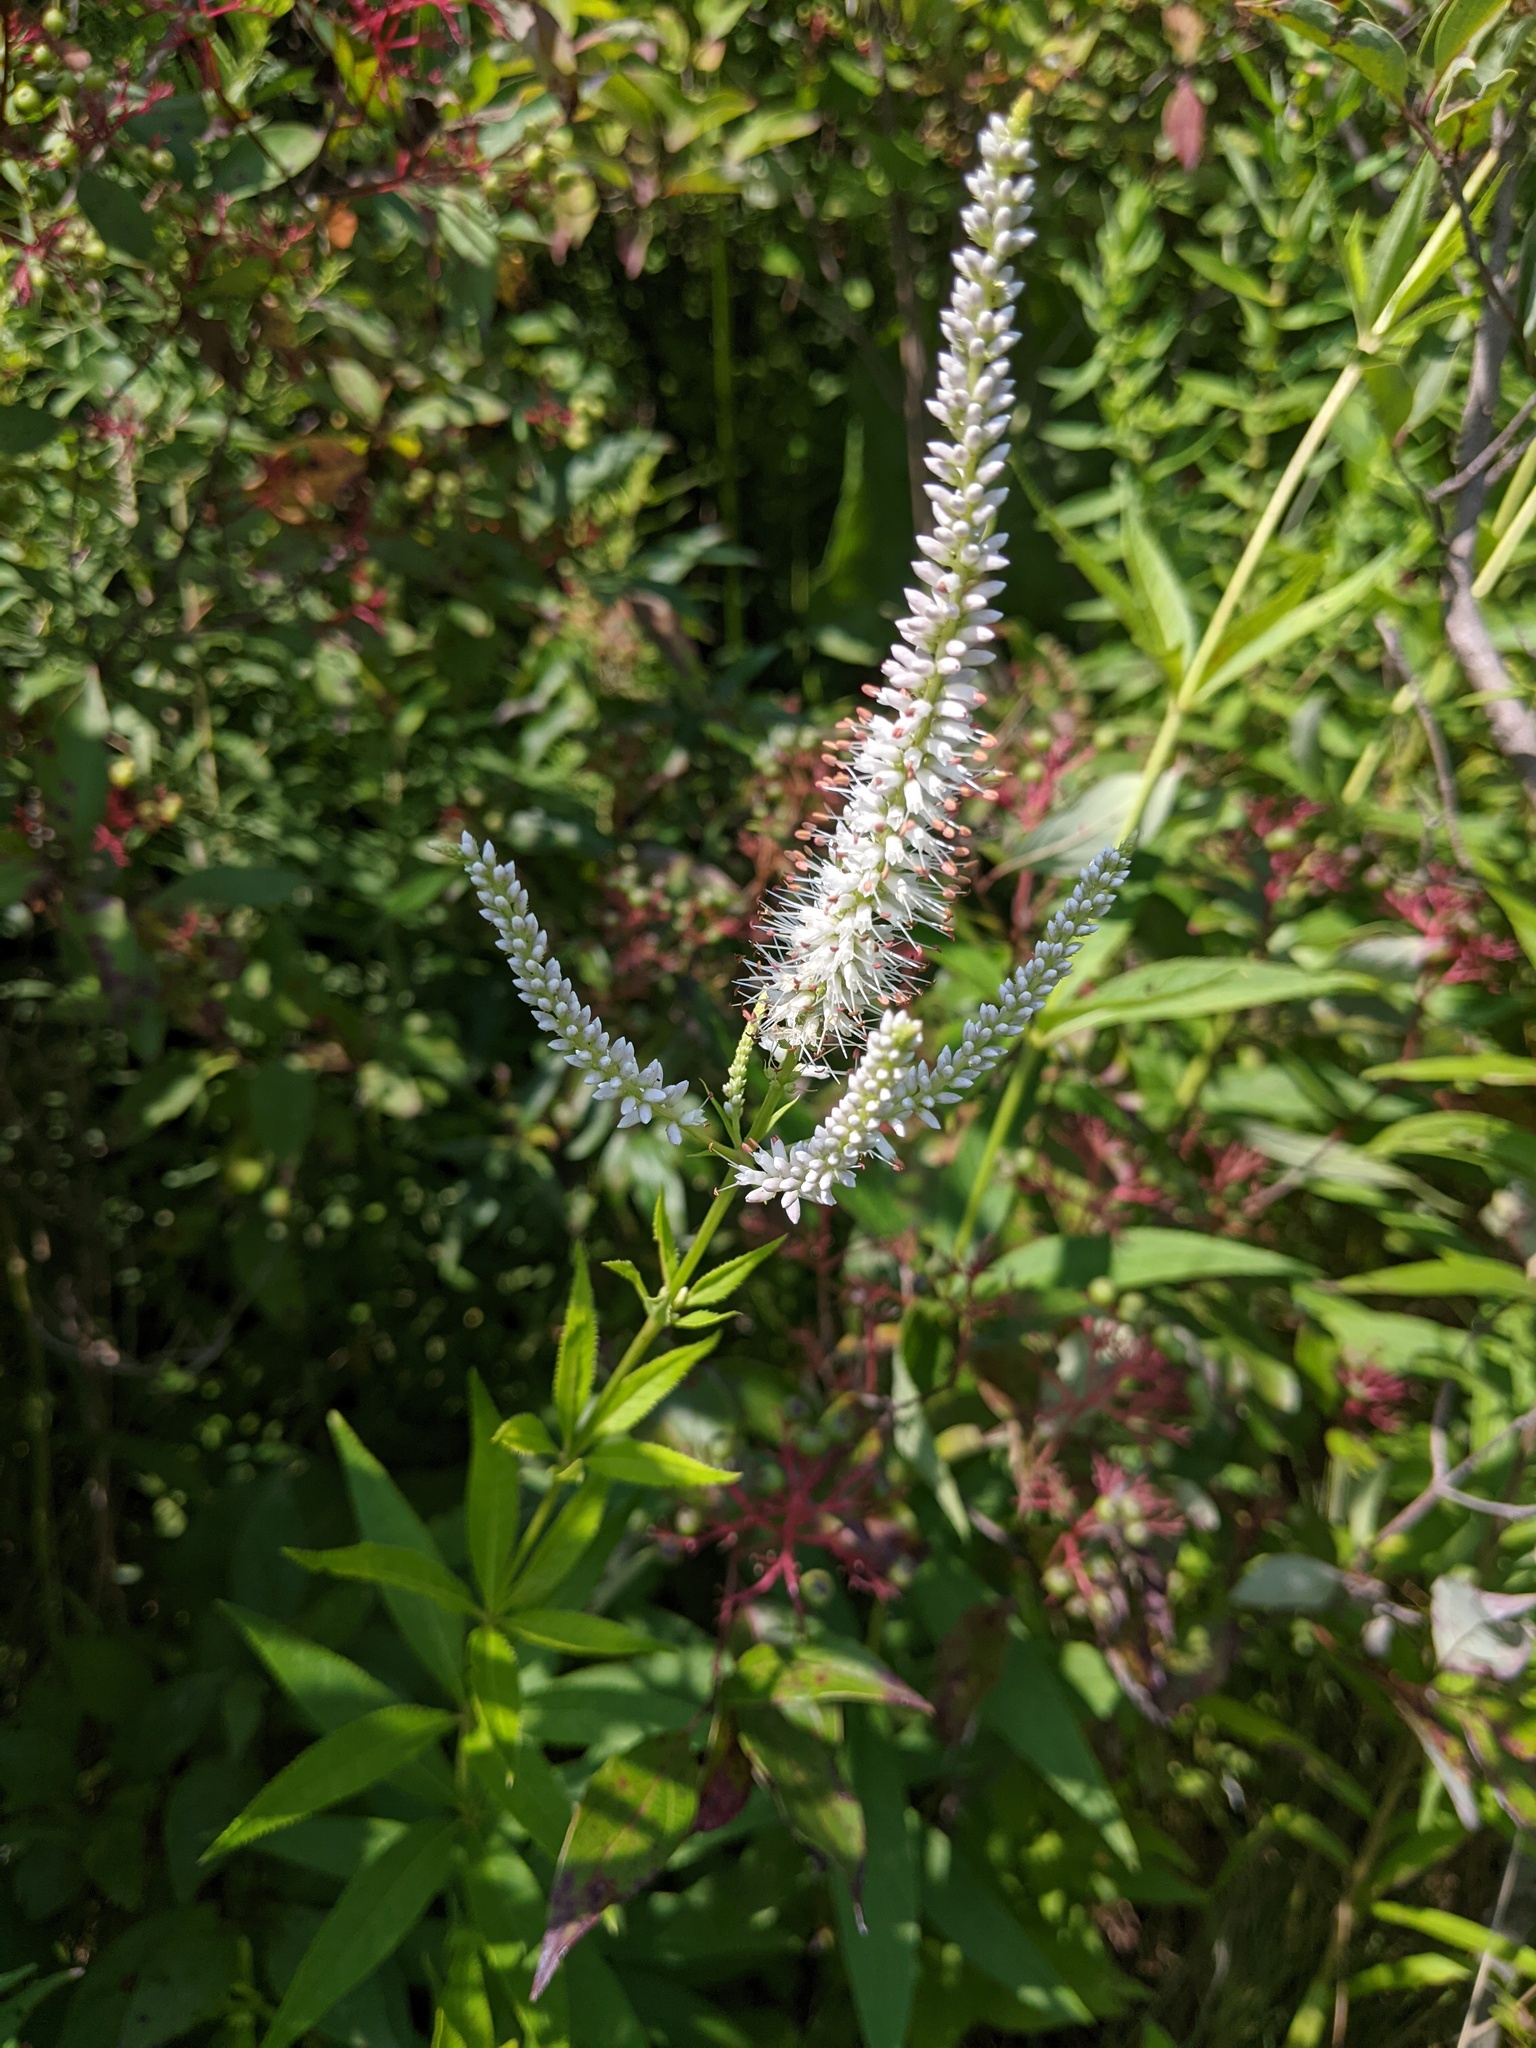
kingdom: Plantae
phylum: Tracheophyta
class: Magnoliopsida
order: Lamiales
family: Plantaginaceae
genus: Veronicastrum
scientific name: Veronicastrum virginicum
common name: Blackroot
